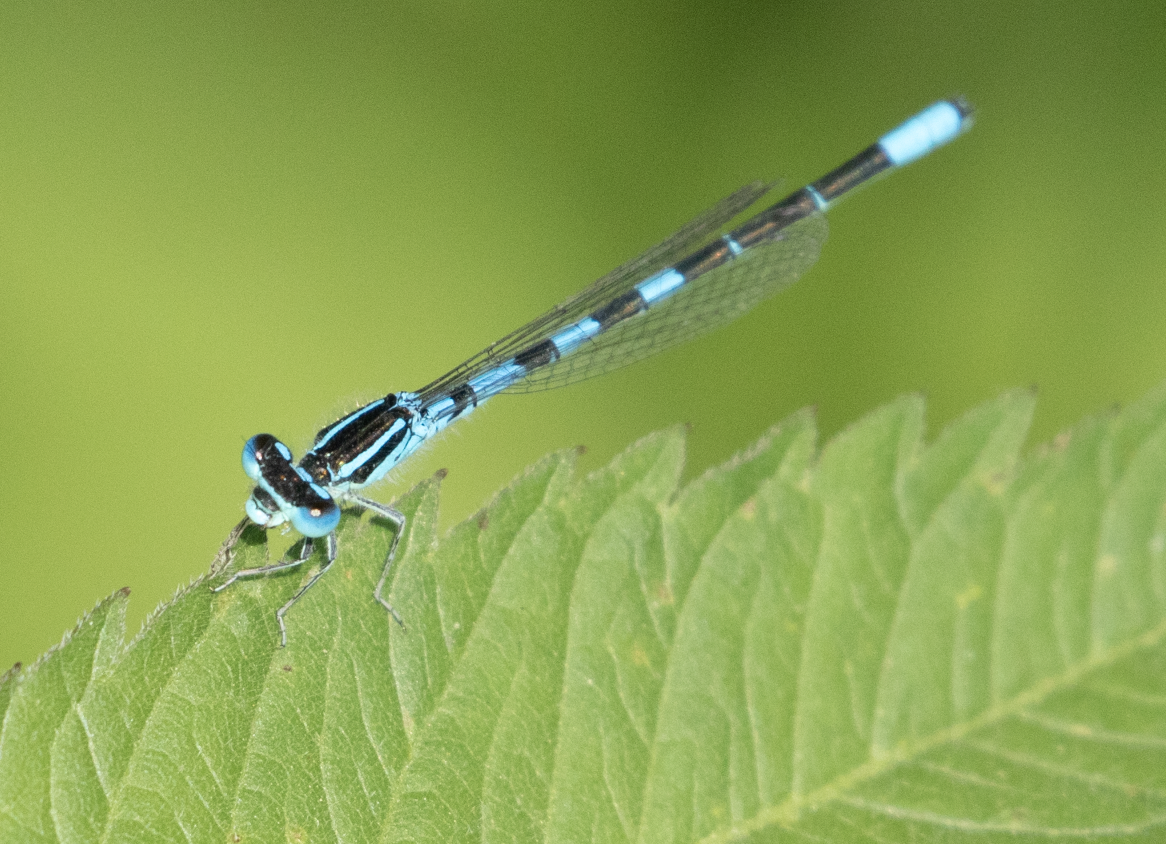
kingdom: Animalia
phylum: Arthropoda
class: Insecta
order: Odonata
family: Coenagrionidae
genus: Coenagrion
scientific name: Coenagrion scitulum
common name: Dainty bluet
